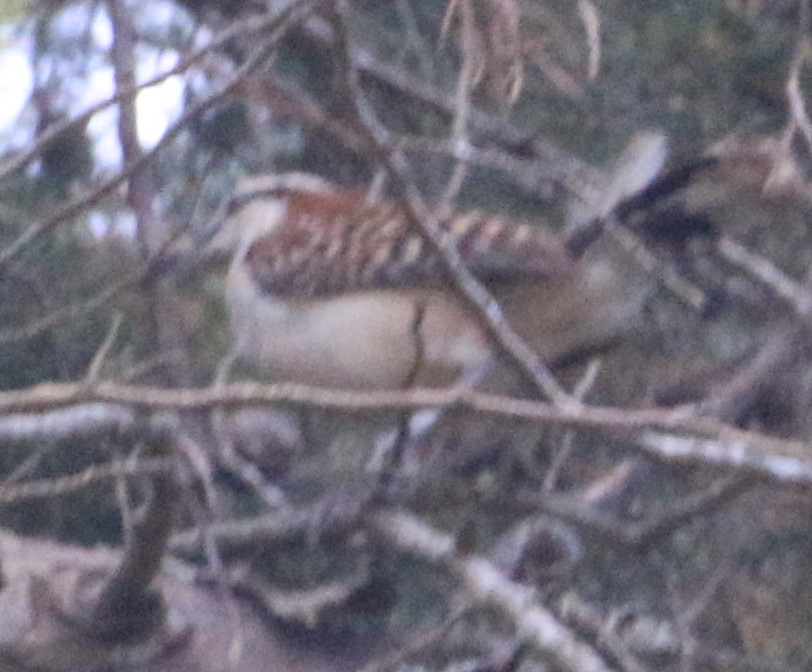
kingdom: Animalia
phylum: Chordata
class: Aves
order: Passeriformes
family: Troglodytidae
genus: Campylorhynchus
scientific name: Campylorhynchus rufinucha
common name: Rufous-naped wren
